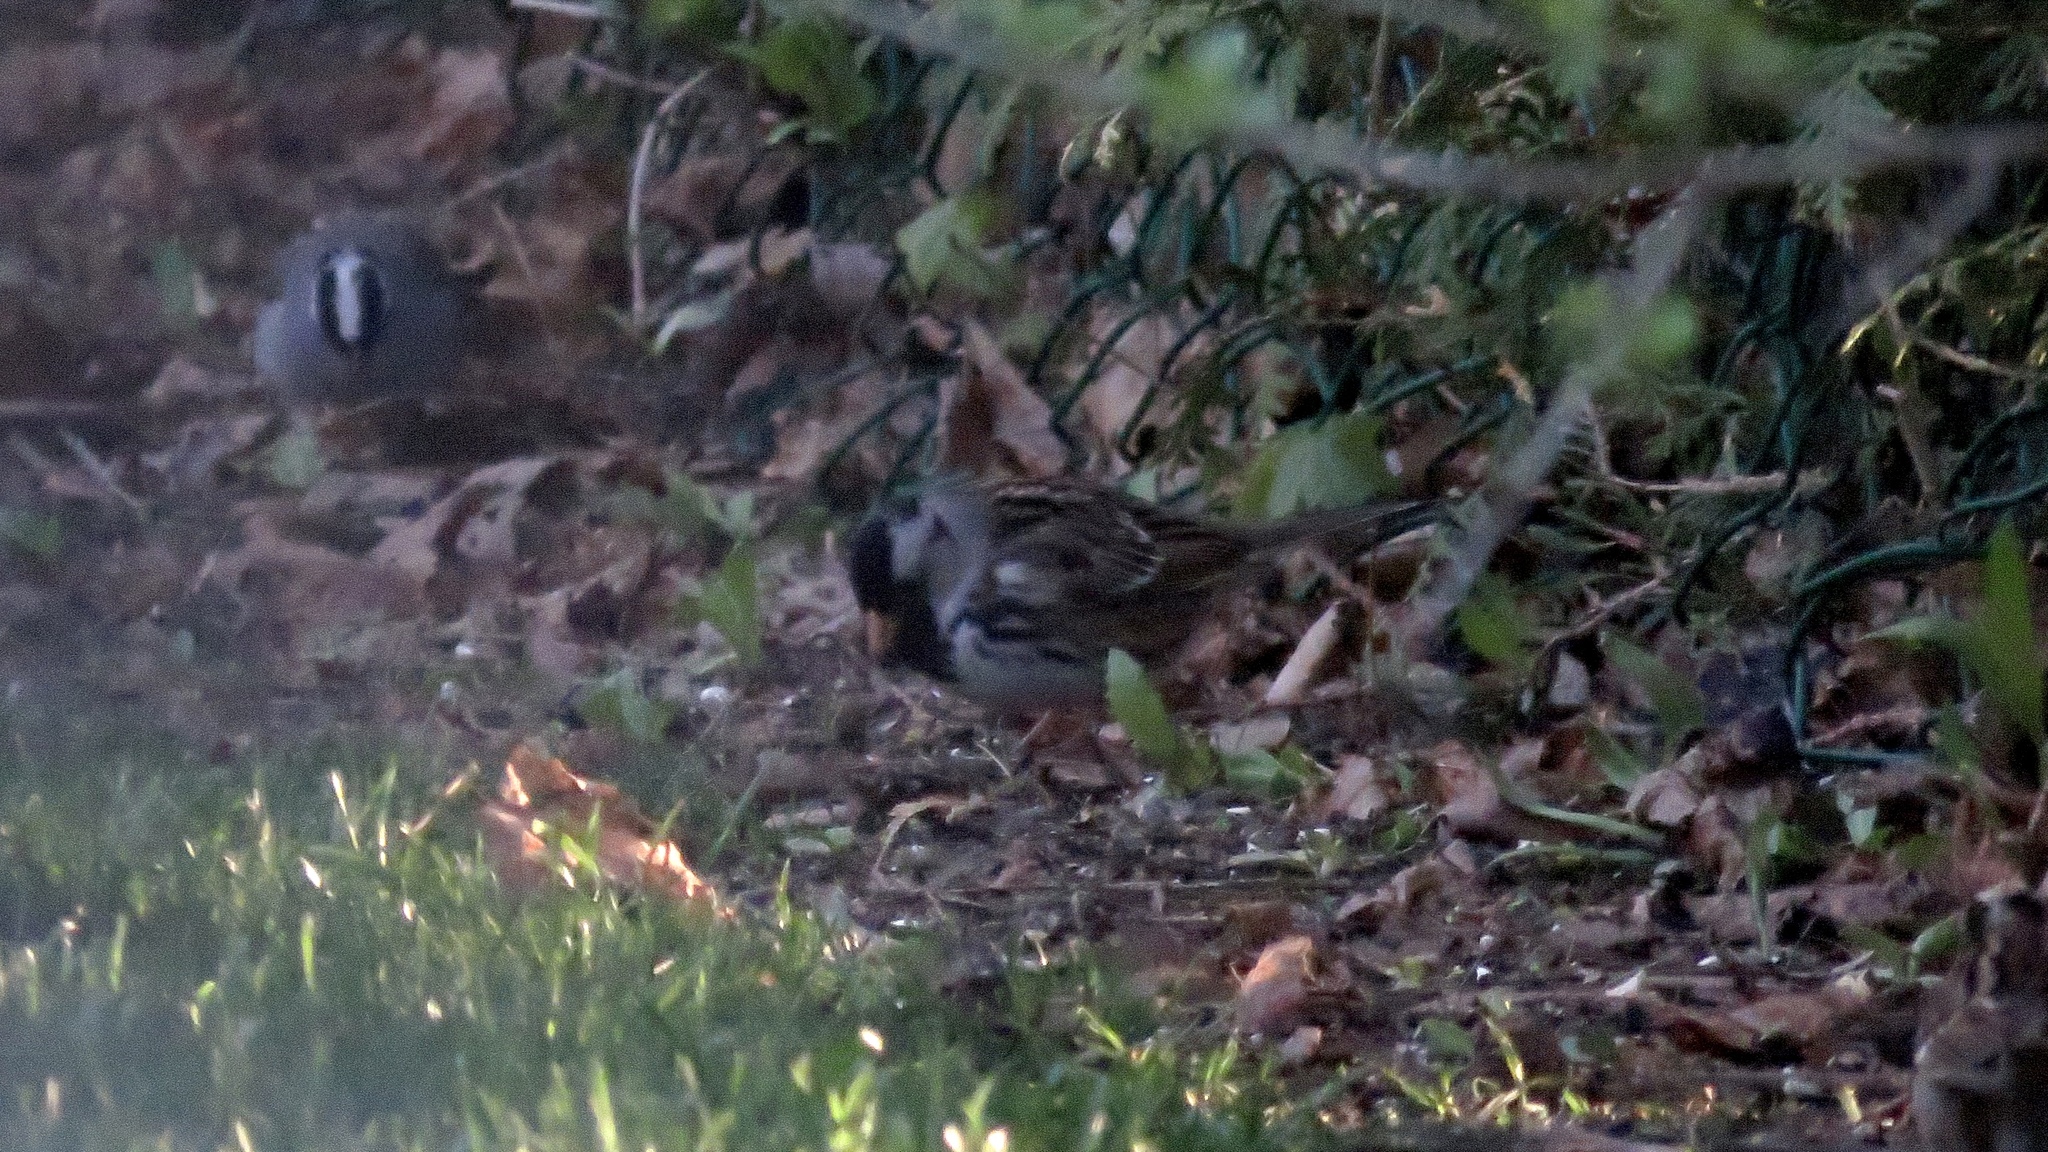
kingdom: Animalia
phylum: Chordata
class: Aves
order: Passeriformes
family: Passerellidae
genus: Zonotrichia
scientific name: Zonotrichia querula
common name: Harris's sparrow
